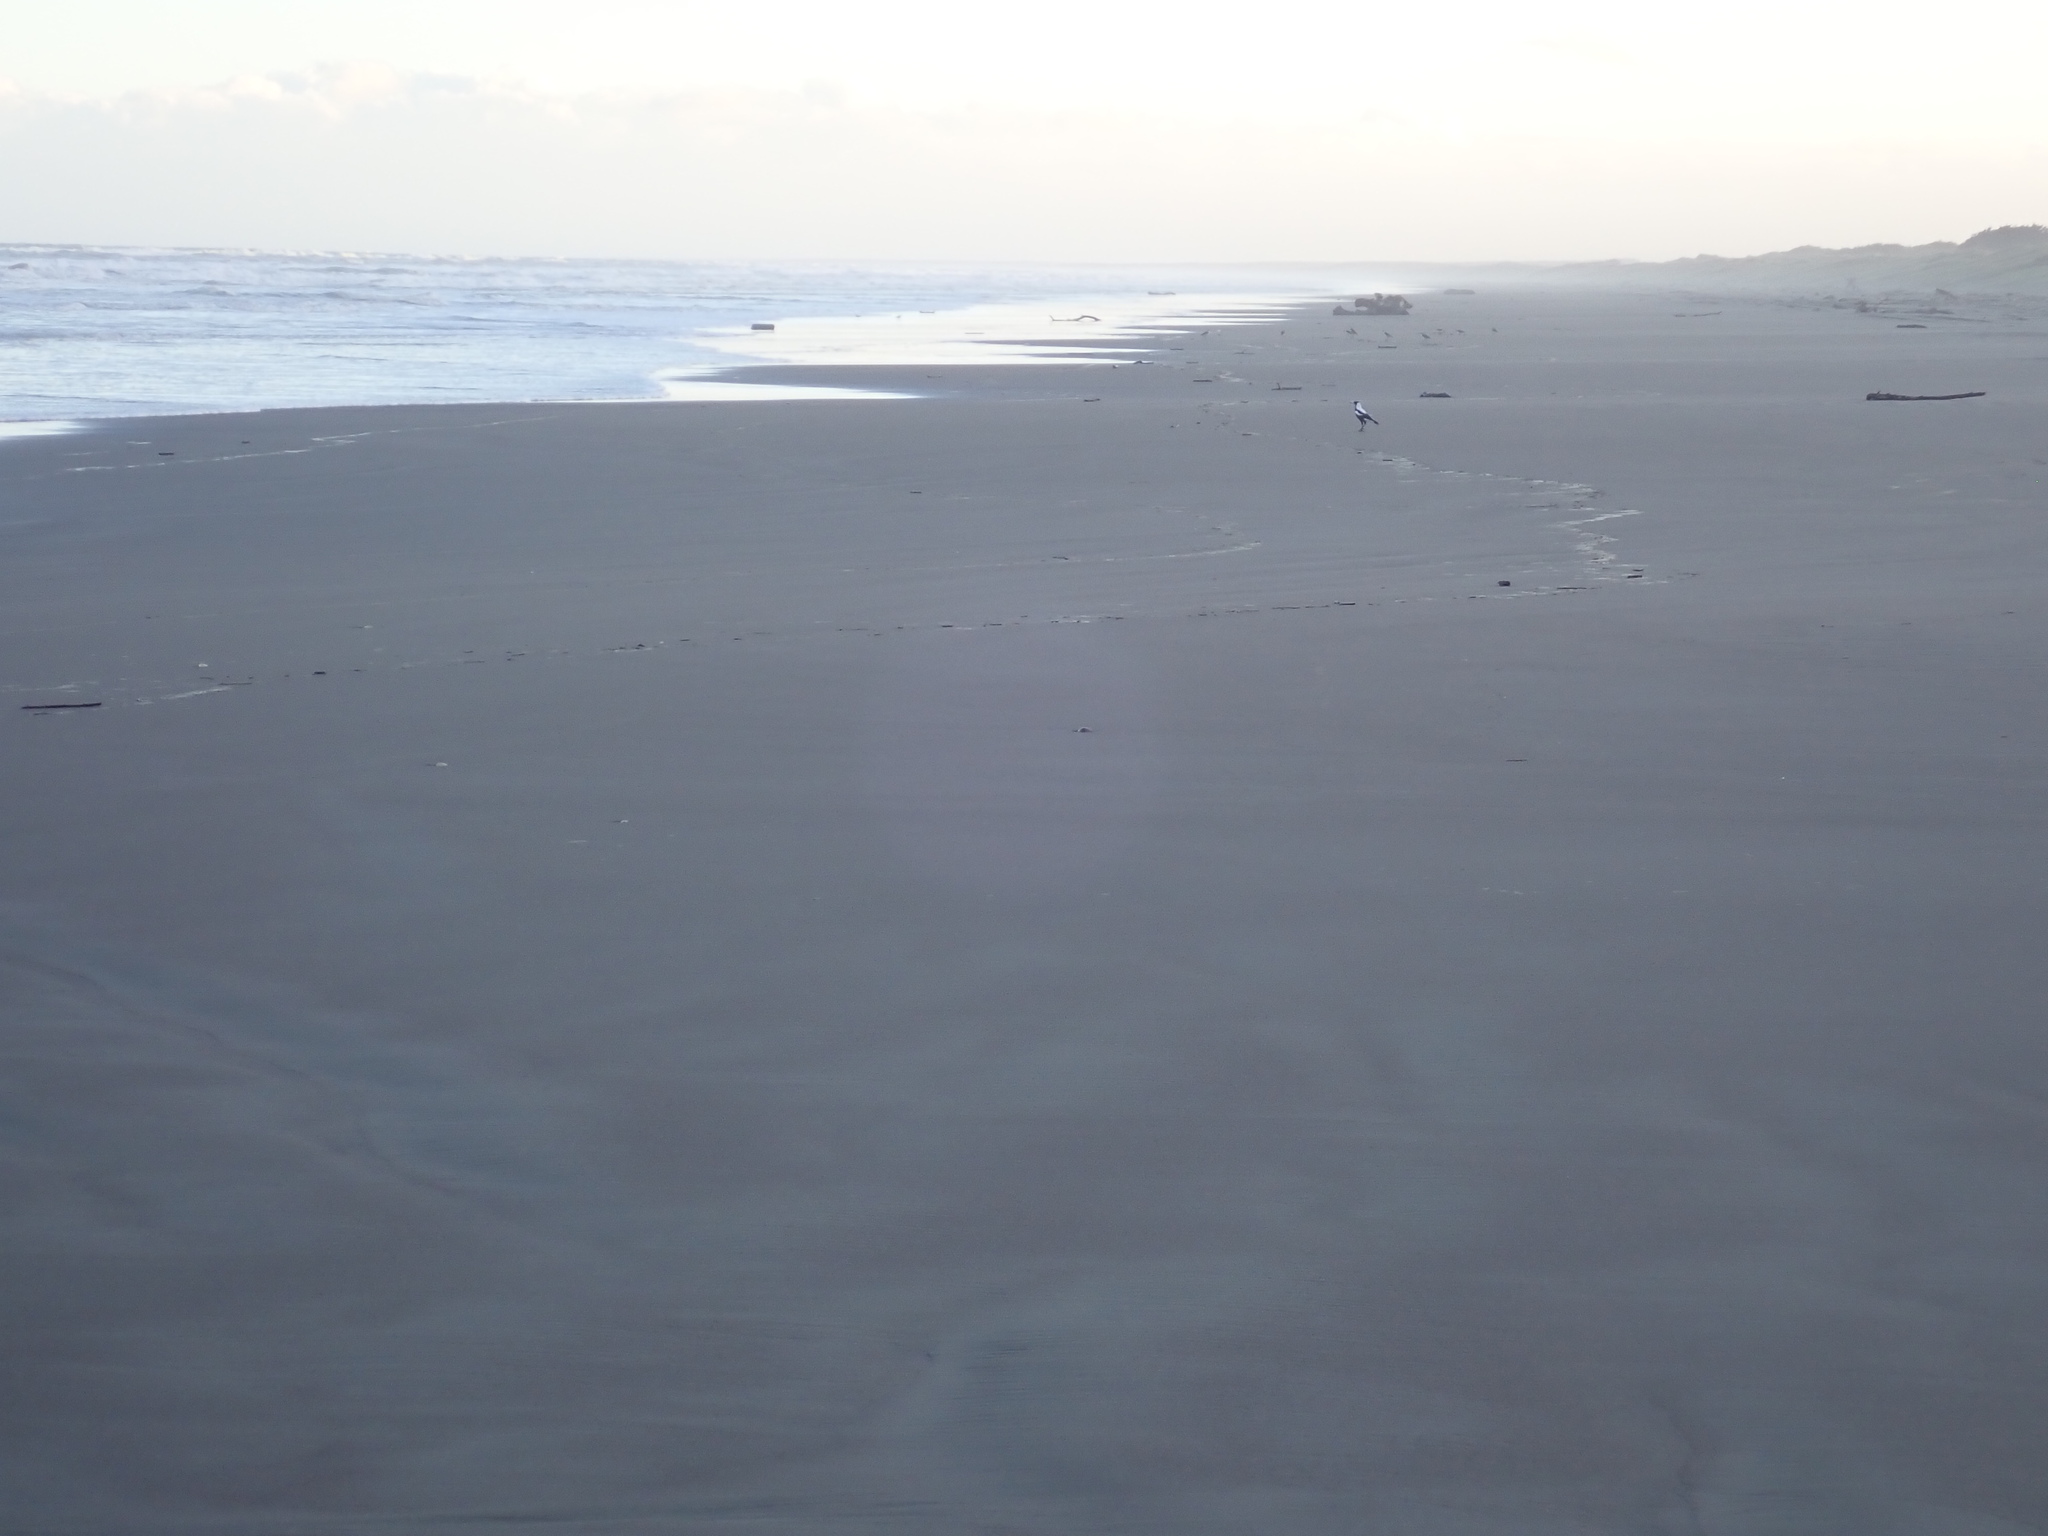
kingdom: Animalia
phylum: Chordata
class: Aves
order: Passeriformes
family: Cracticidae
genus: Gymnorhina
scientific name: Gymnorhina tibicen
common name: Australian magpie
